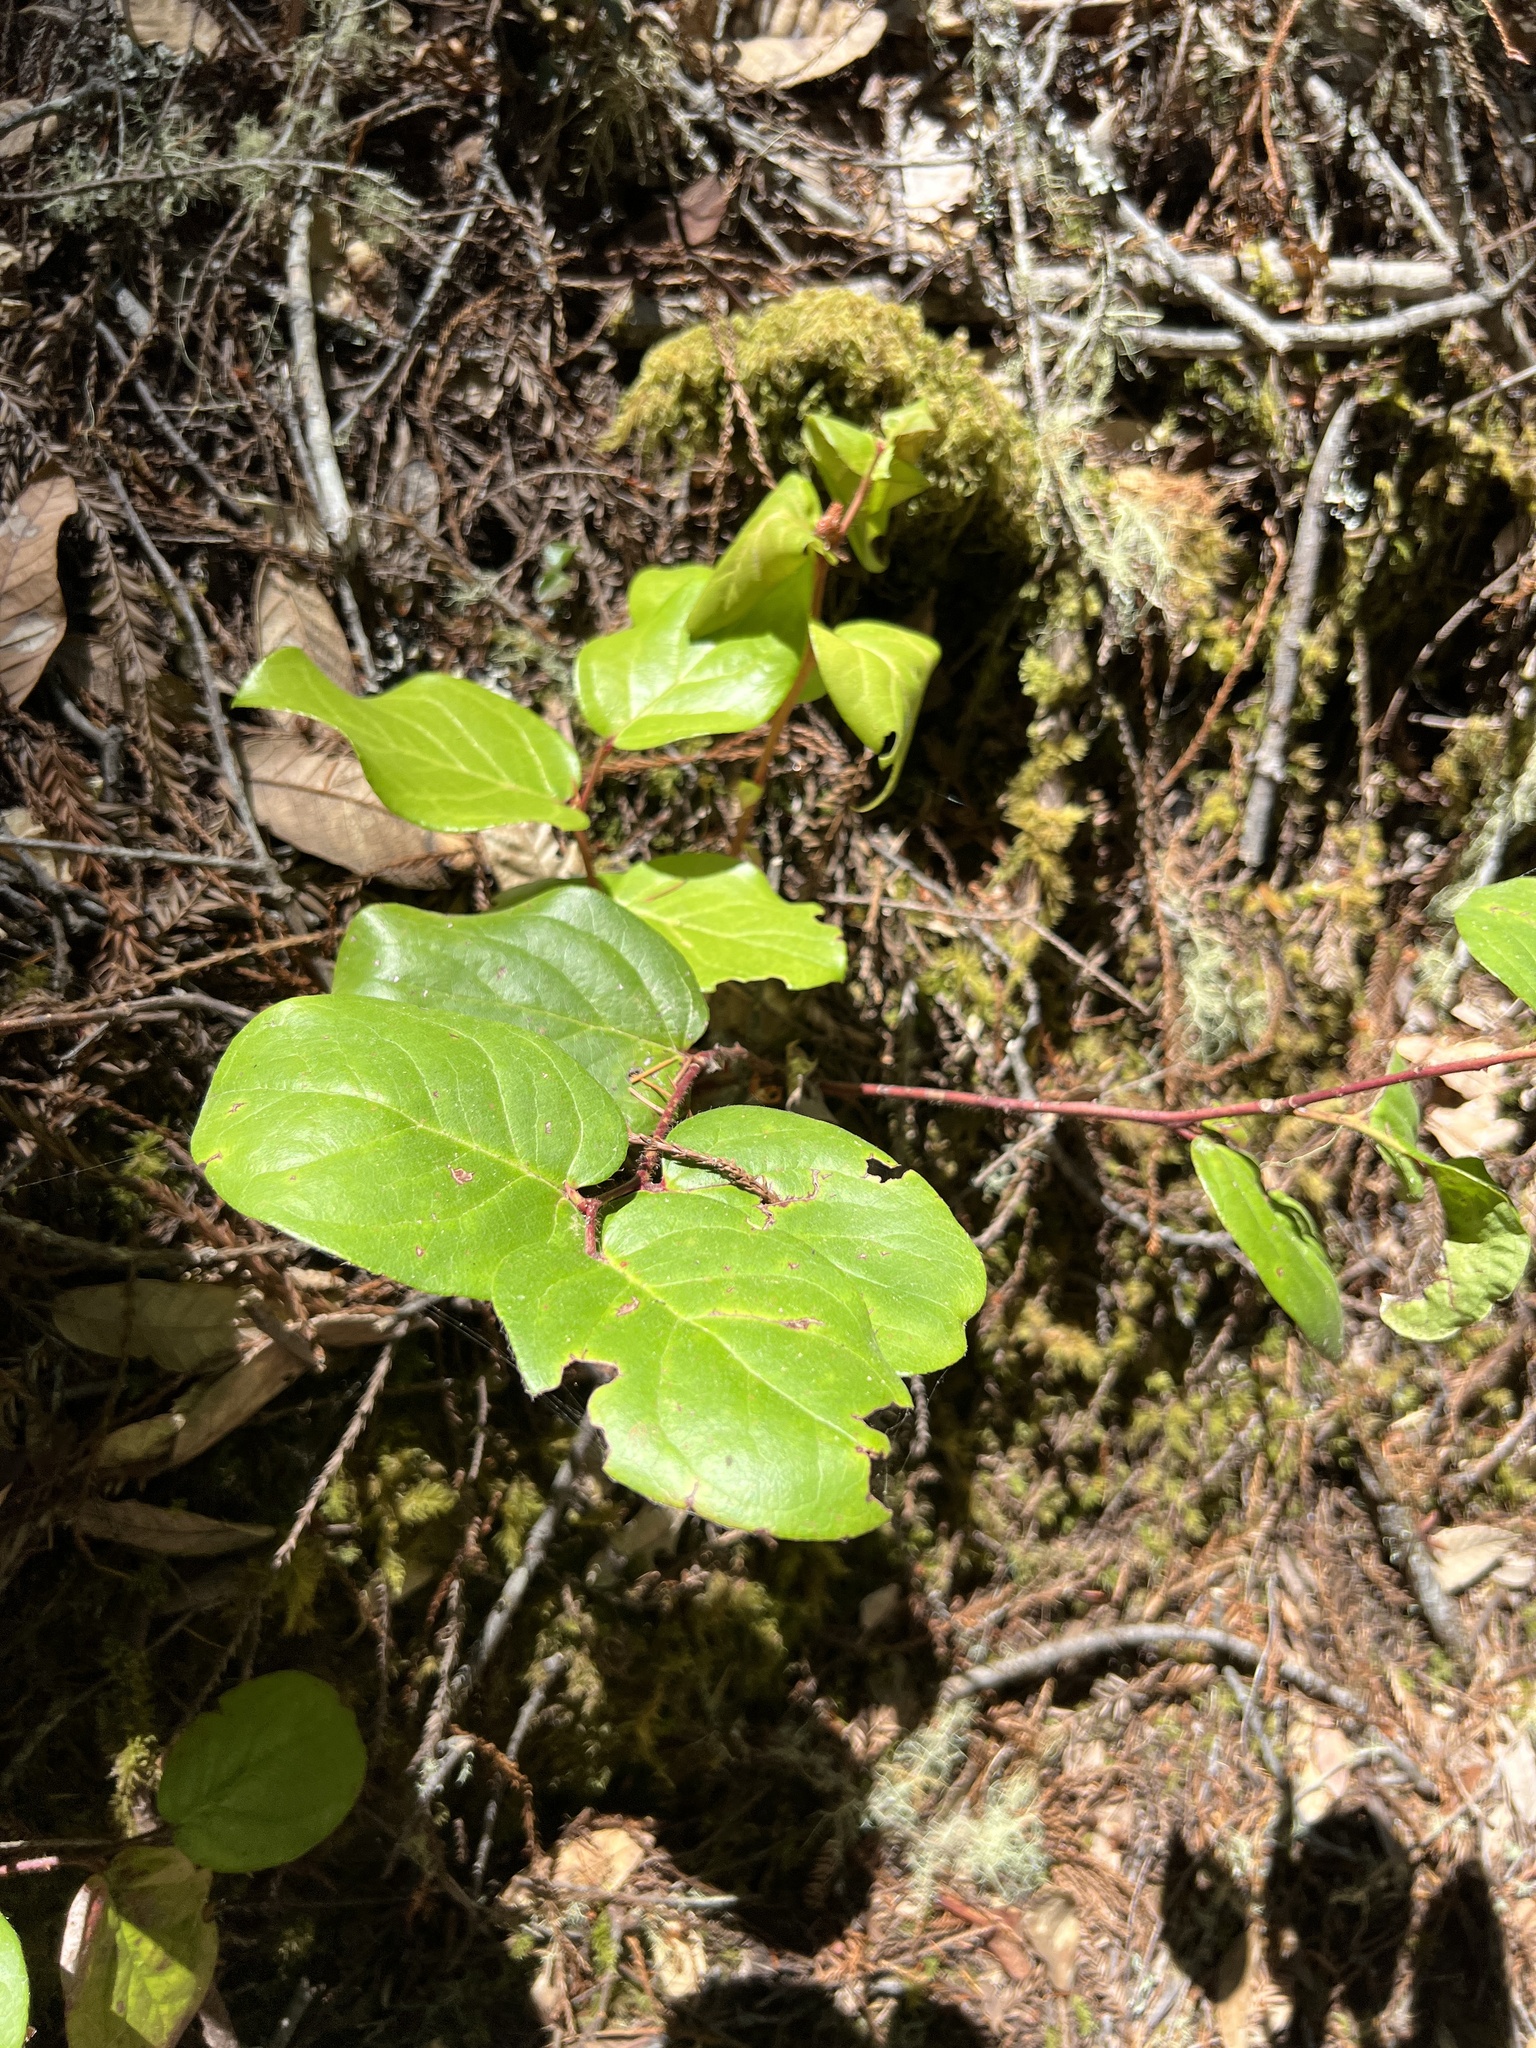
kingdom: Plantae
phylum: Tracheophyta
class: Magnoliopsida
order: Ericales
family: Ericaceae
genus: Gaultheria
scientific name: Gaultheria shallon
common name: Shallon
